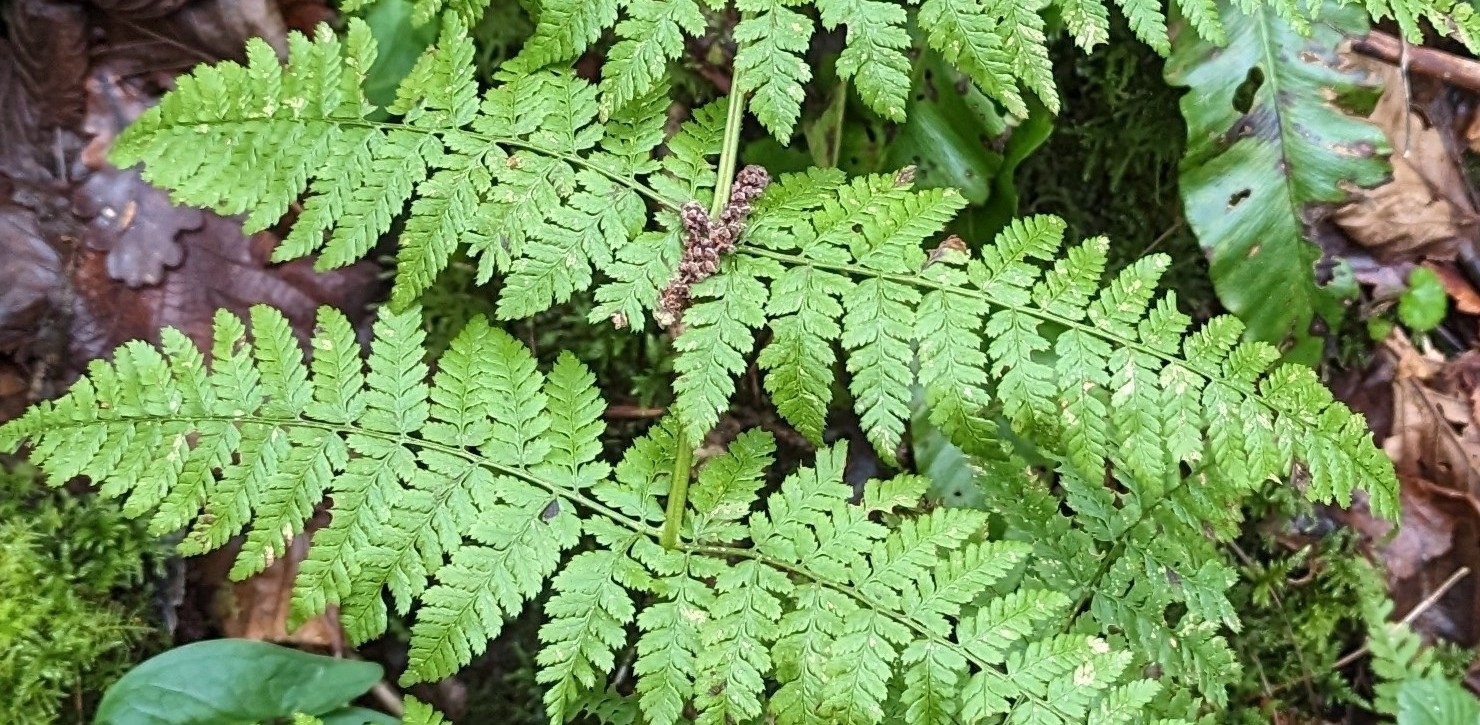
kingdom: Plantae
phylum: Tracheophyta
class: Polypodiopsida
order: Polypodiales
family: Dryopteridaceae
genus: Dryopteris
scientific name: Dryopteris dilatata
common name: Broad buckler-fern
